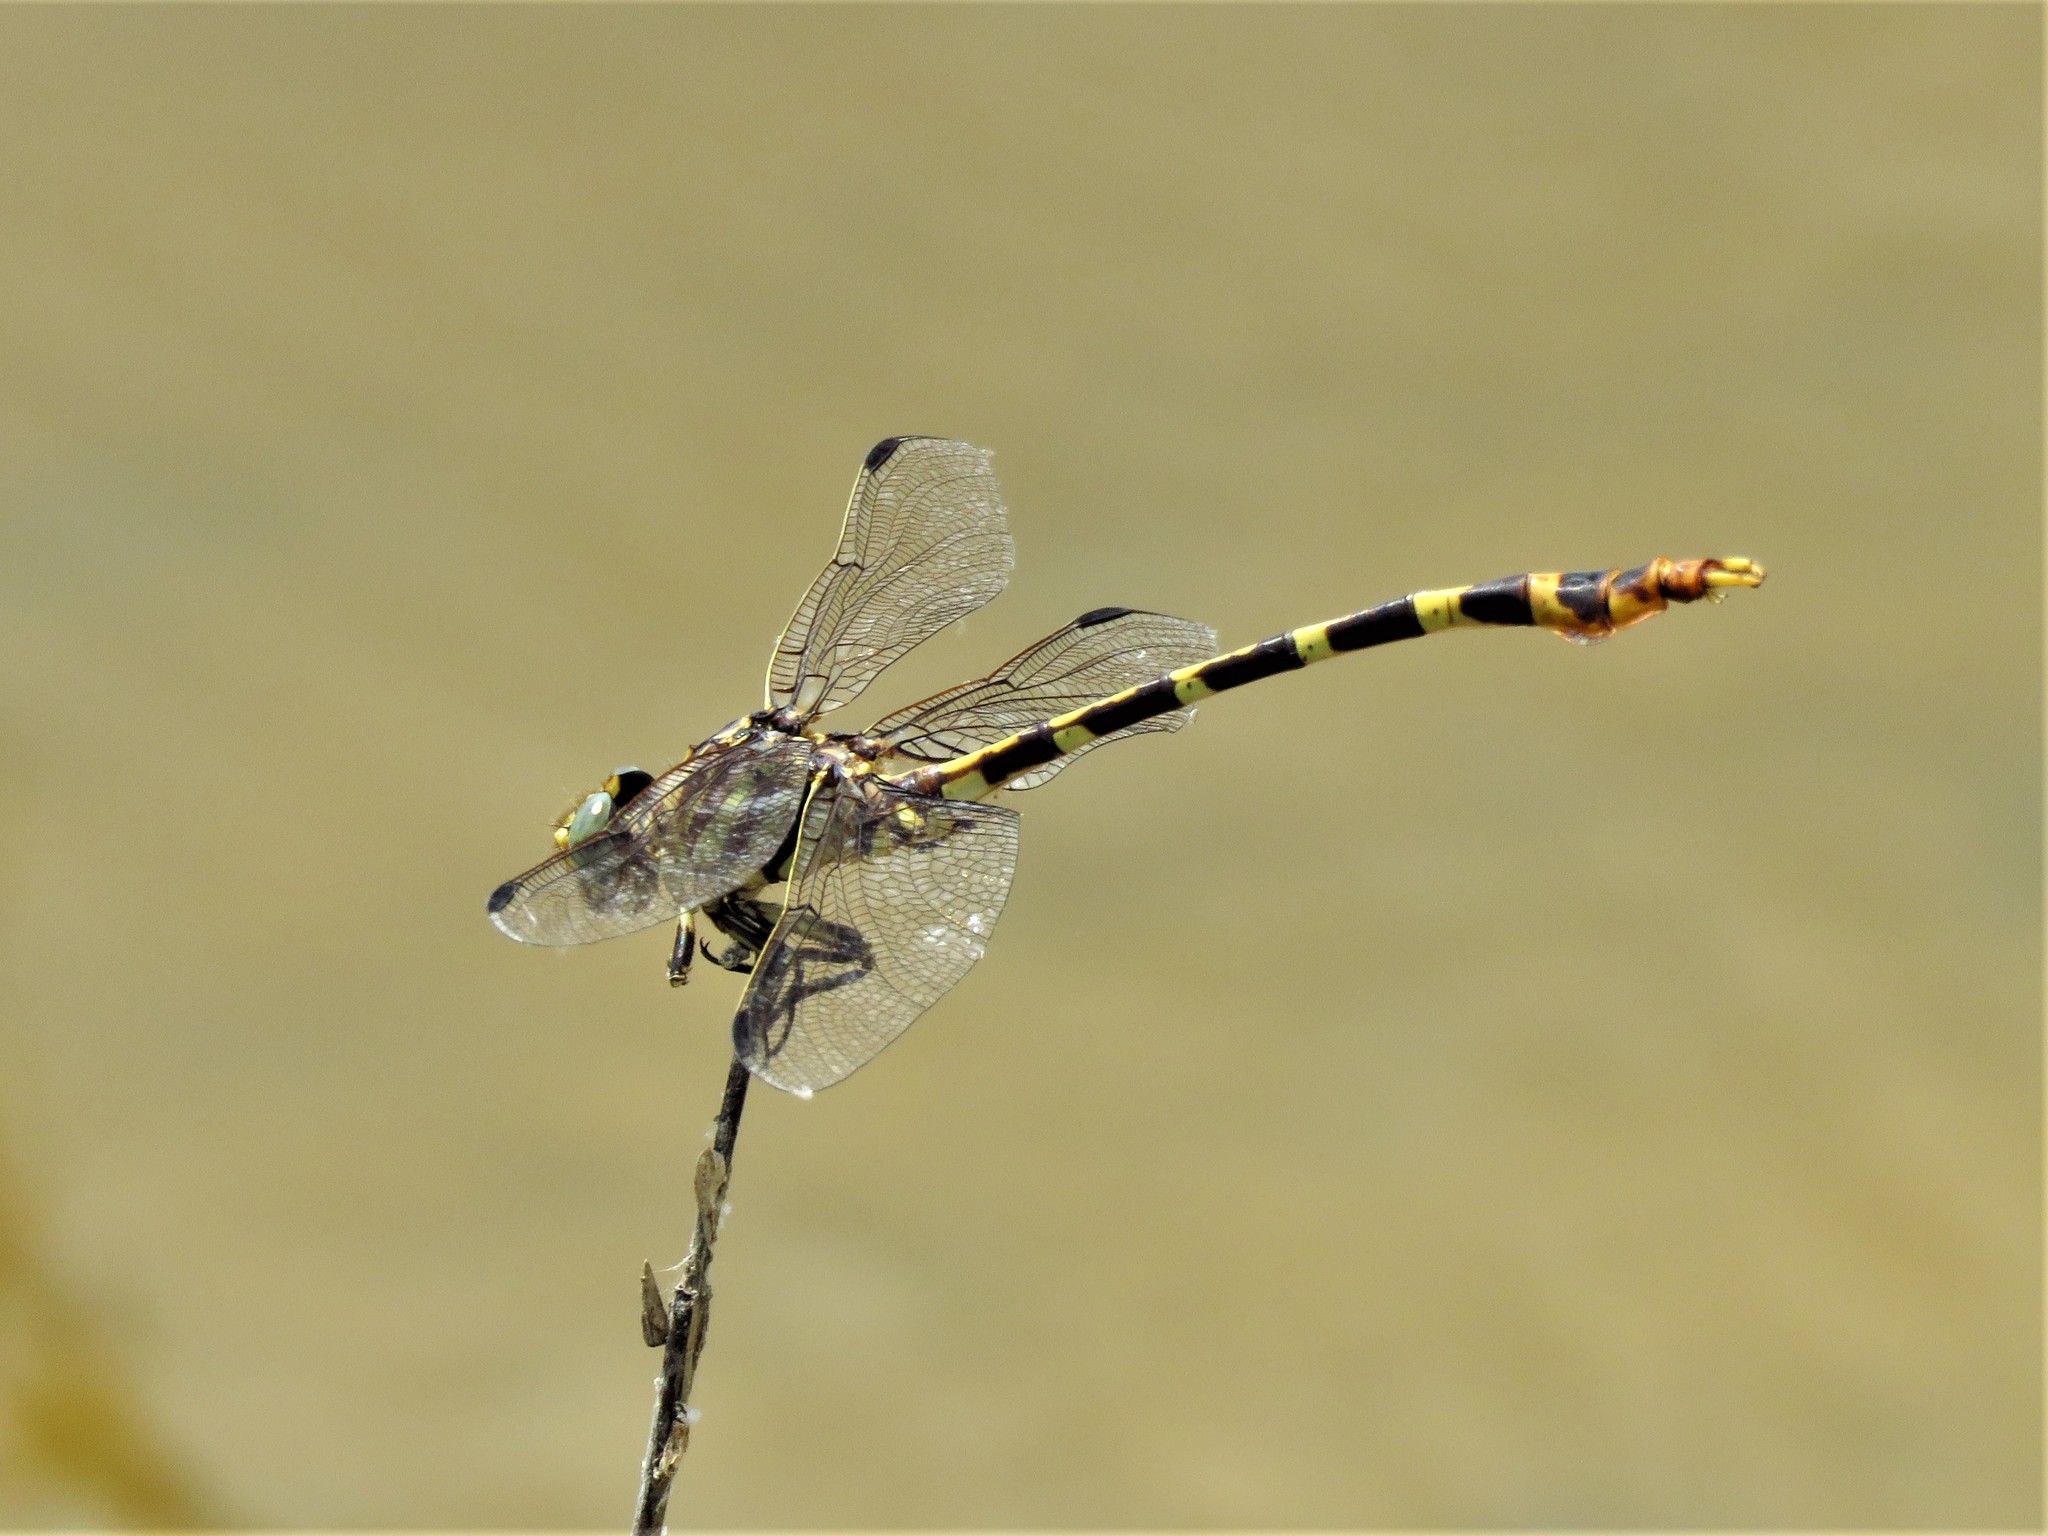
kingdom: Animalia
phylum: Arthropoda
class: Insecta
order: Odonata
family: Gomphidae
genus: Phyllogomphoides
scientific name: Phyllogomphoides stigmatus
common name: Four-striped leaftail
